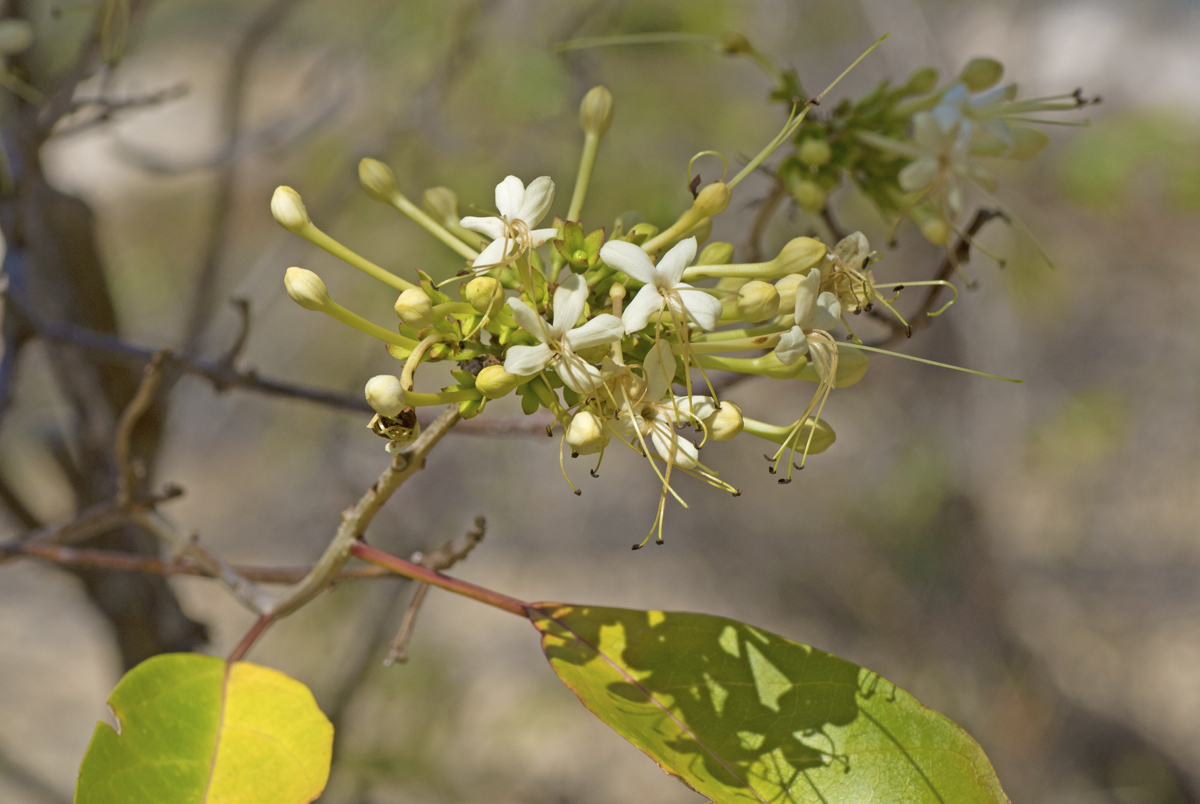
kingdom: Plantae
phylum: Tracheophyta
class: Magnoliopsida
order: Lamiales
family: Lamiaceae
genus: Clerodendrum
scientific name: Clerodendrum floribundum
